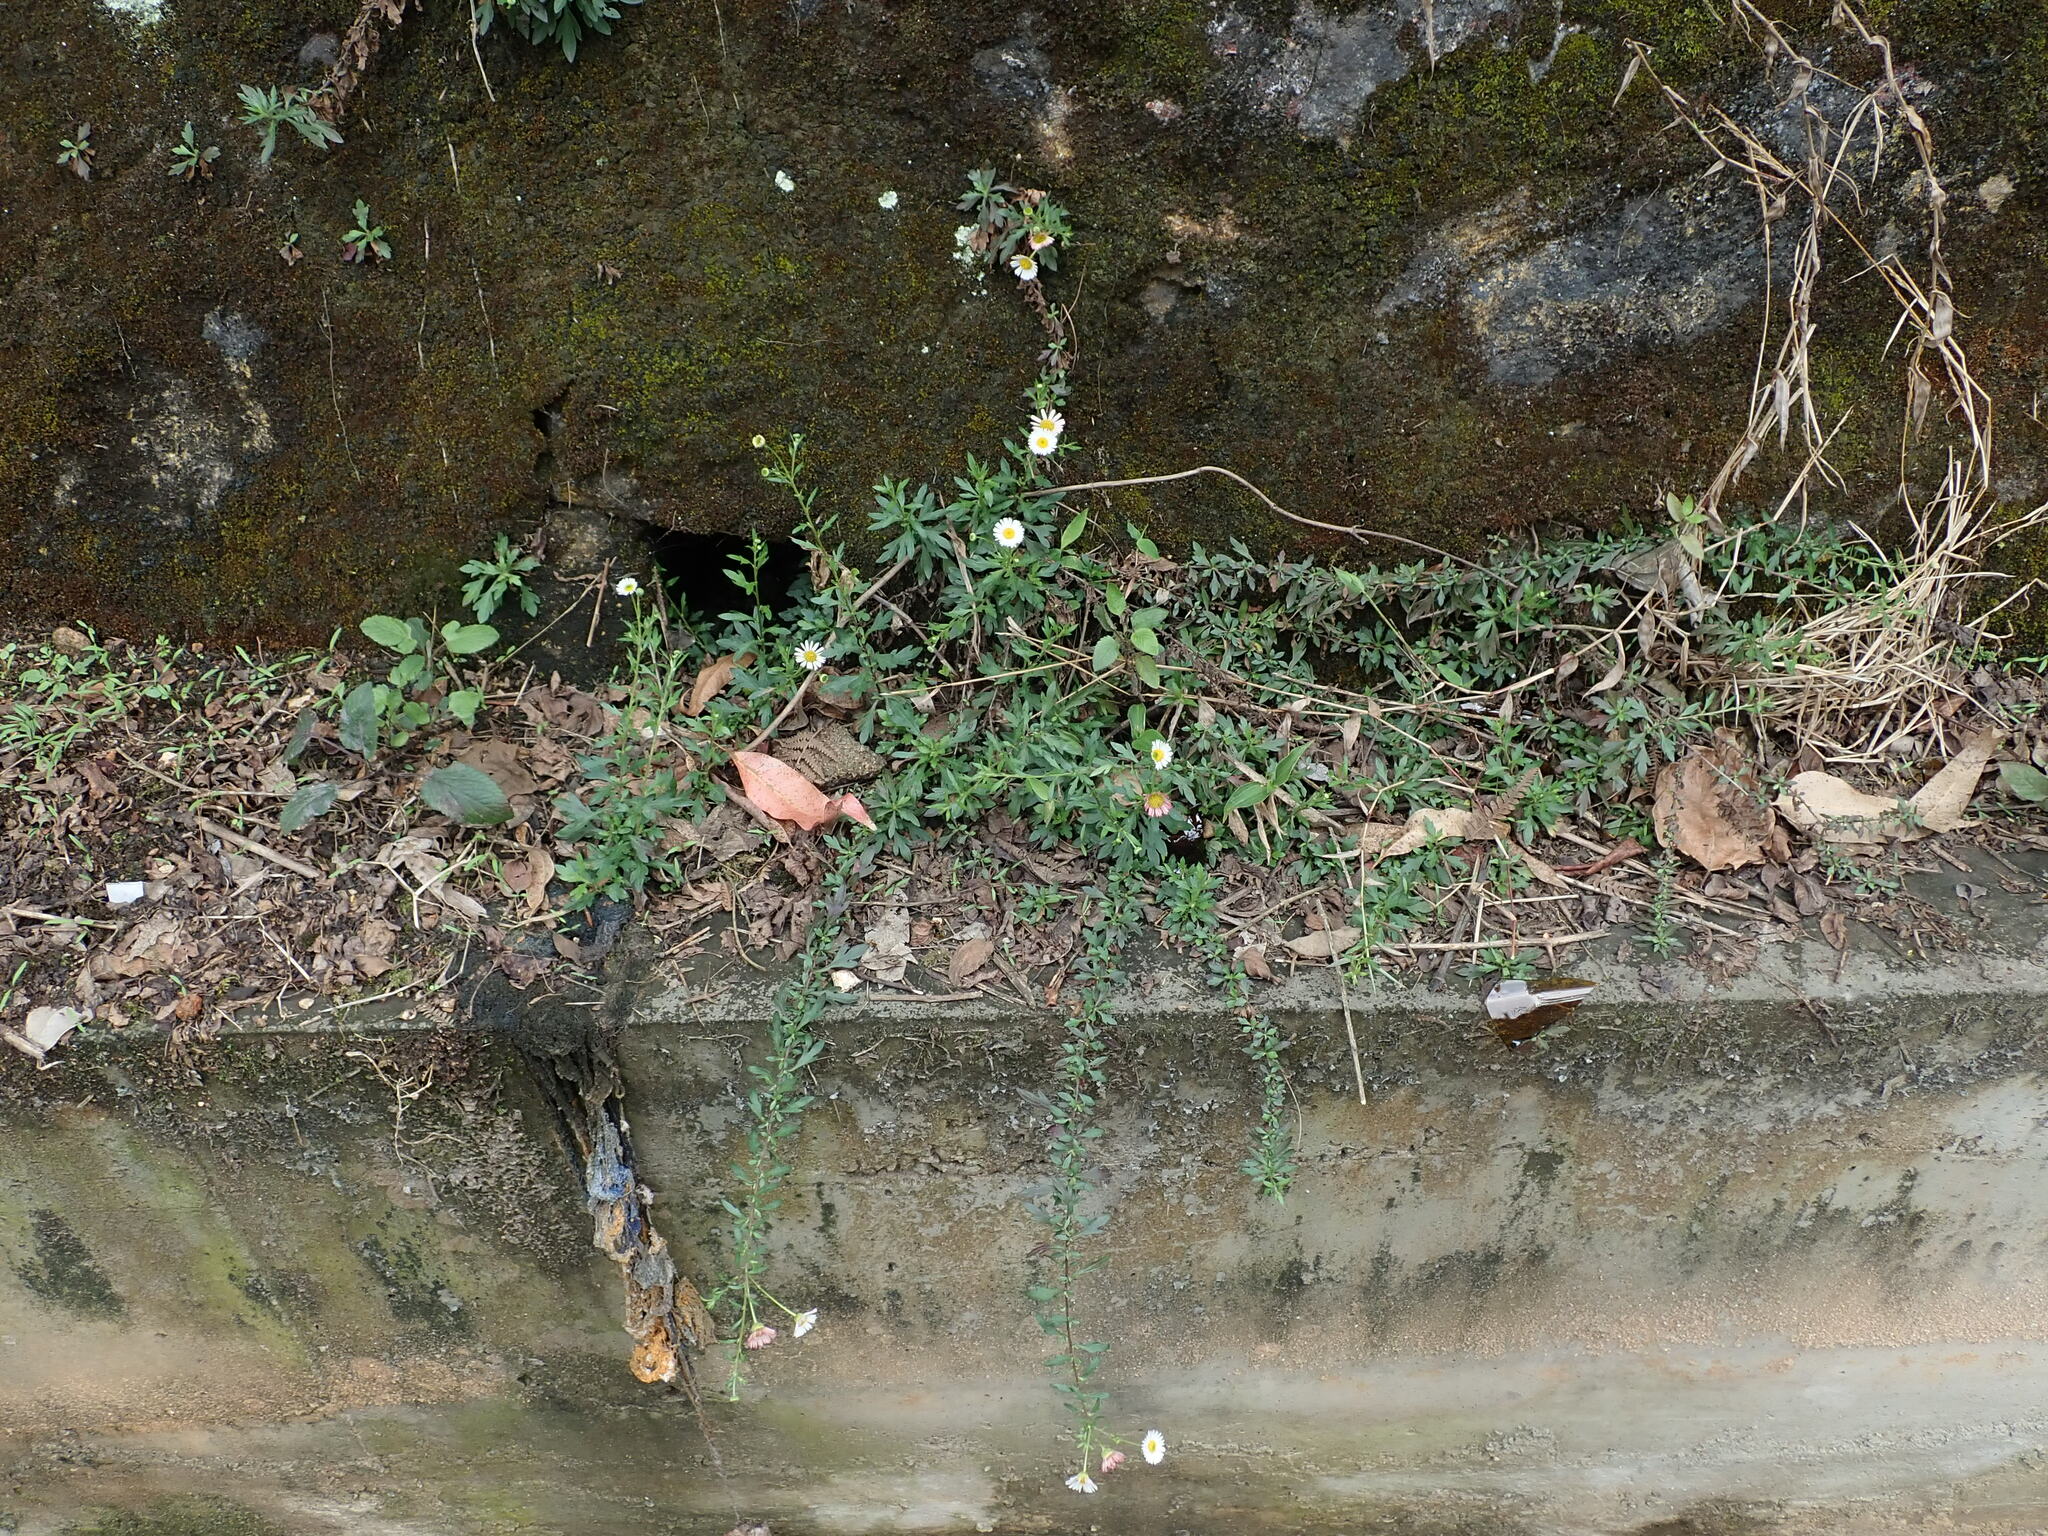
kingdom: Plantae
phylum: Tracheophyta
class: Magnoliopsida
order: Asterales
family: Asteraceae
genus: Erigeron
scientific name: Erigeron karvinskianus
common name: Mexican fleabane
